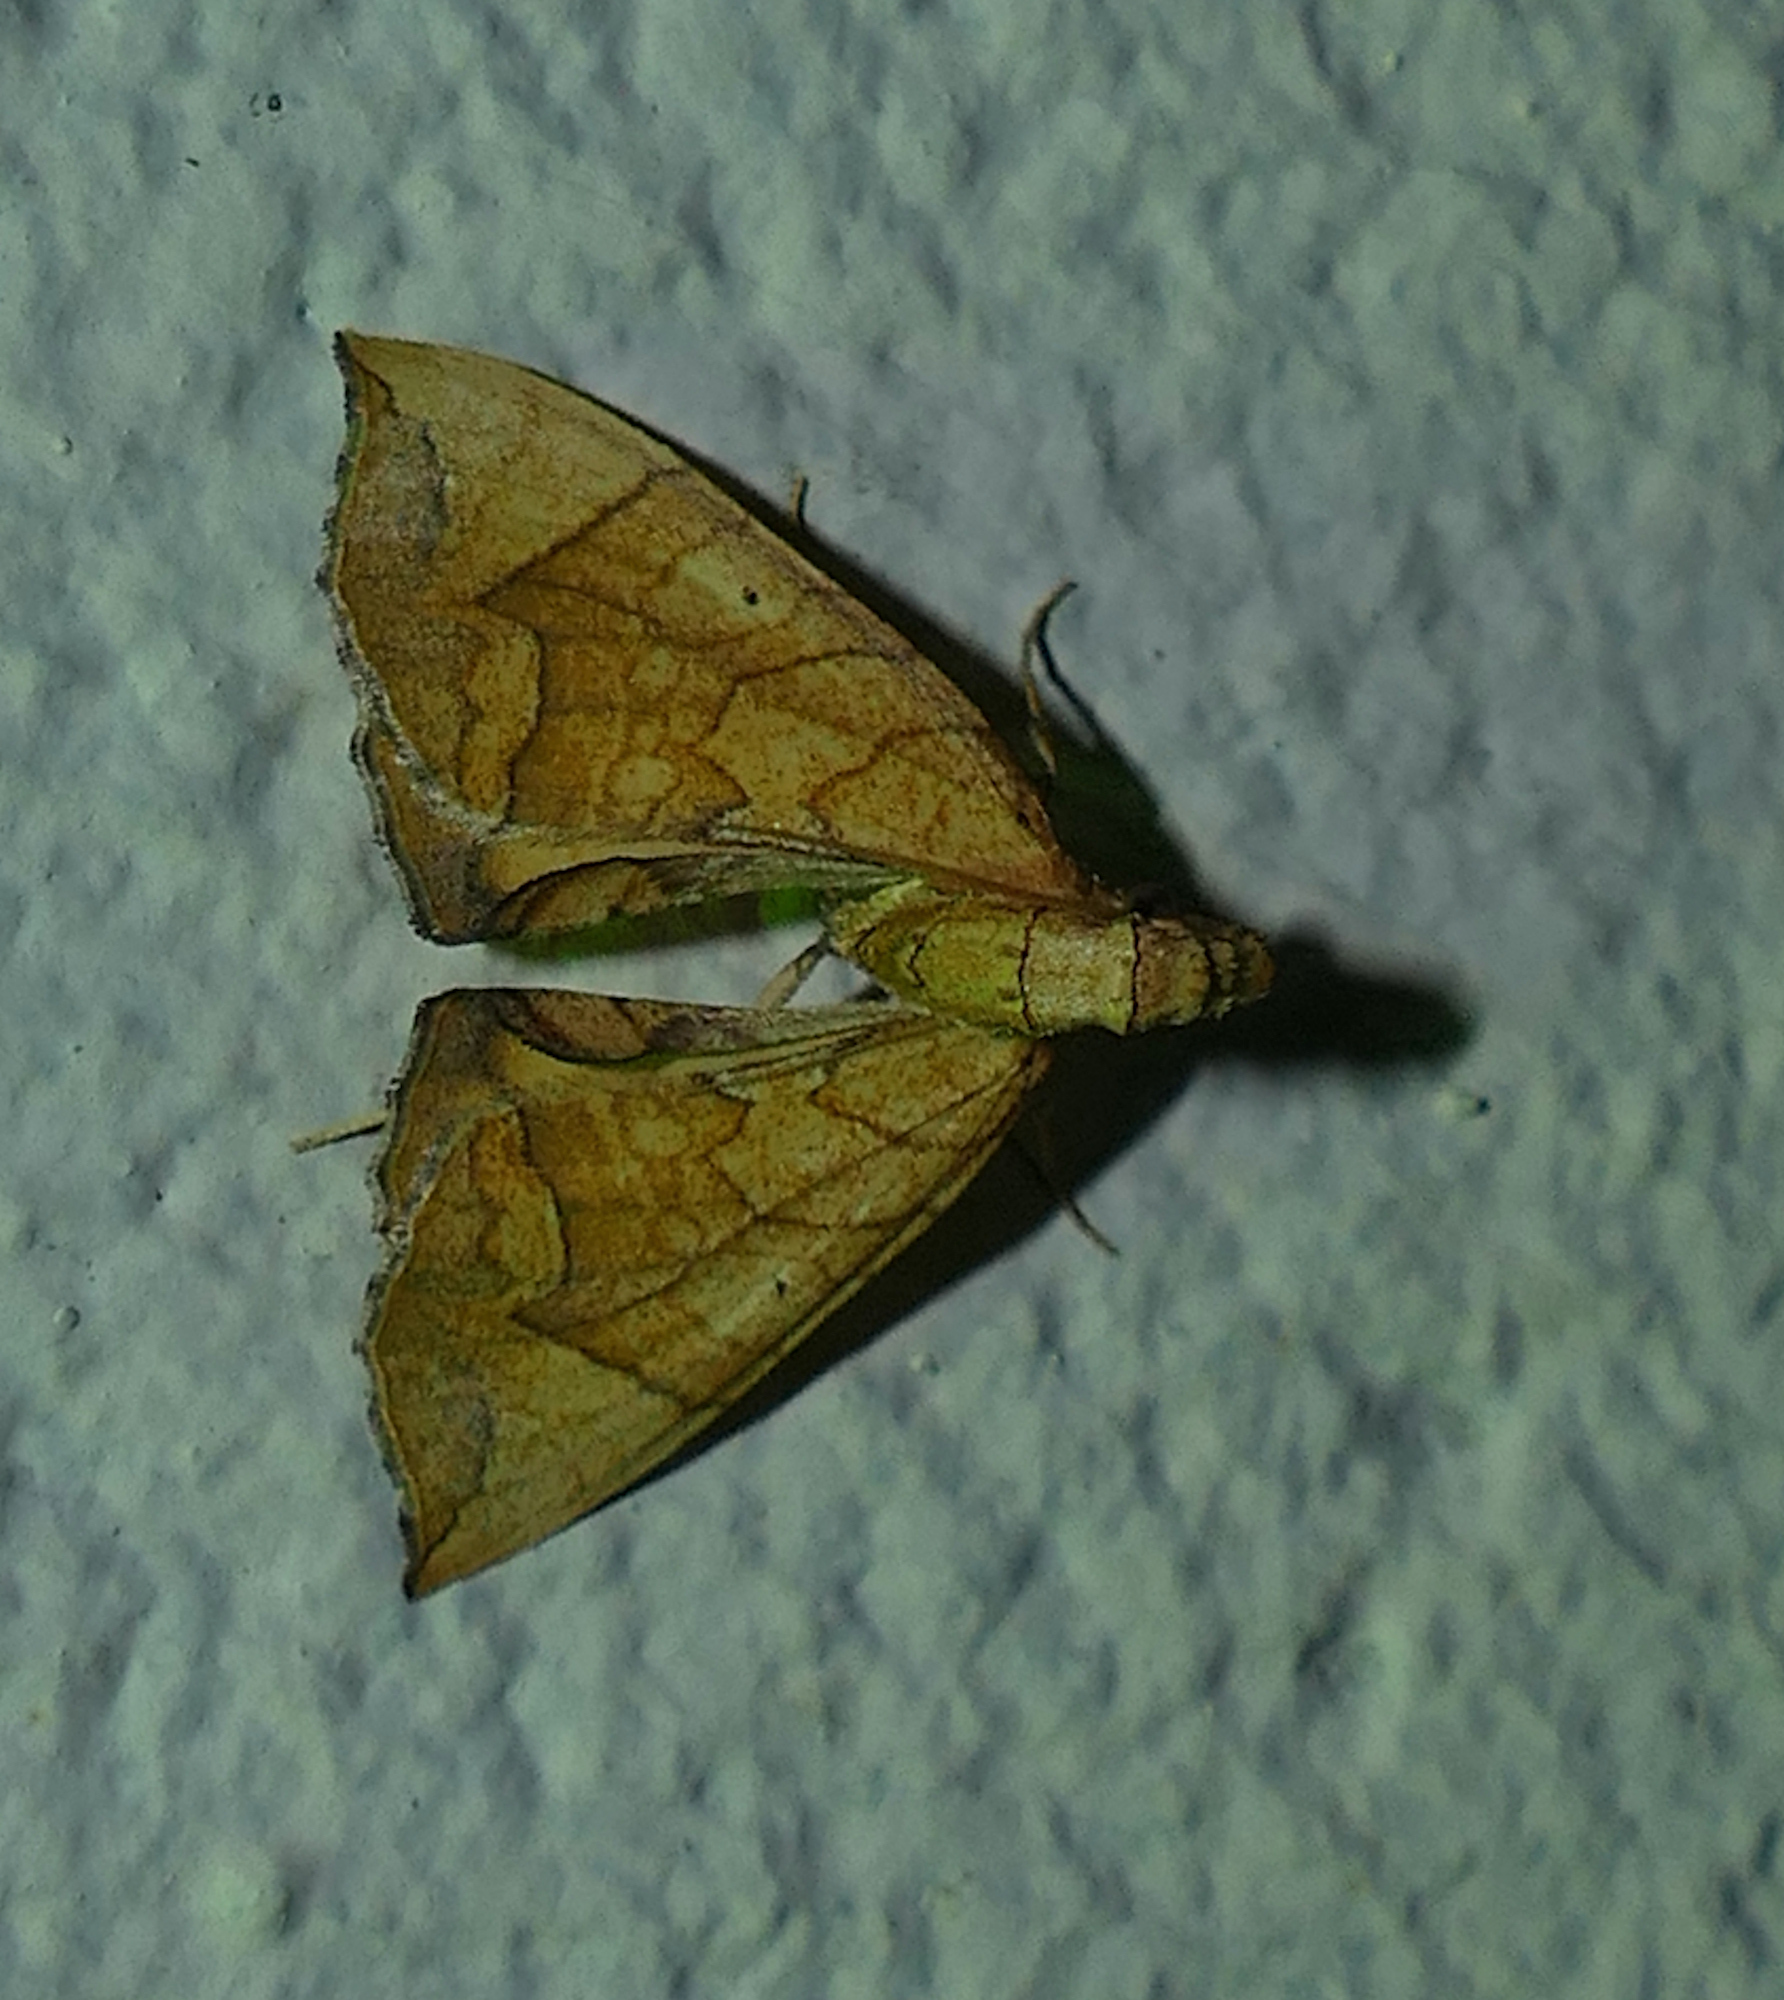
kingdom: Animalia
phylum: Arthropoda
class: Insecta
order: Lepidoptera
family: Geometridae
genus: Eulithis
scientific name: Eulithis
